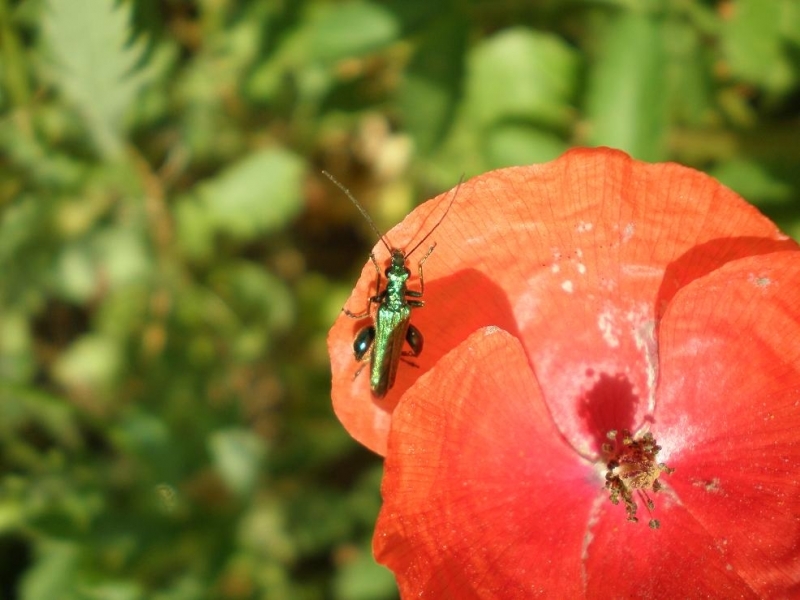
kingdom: Animalia
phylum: Arthropoda
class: Insecta
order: Coleoptera
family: Oedemeridae
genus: Oedemera
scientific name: Oedemera nobilis
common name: Swollen-thighed beetle
